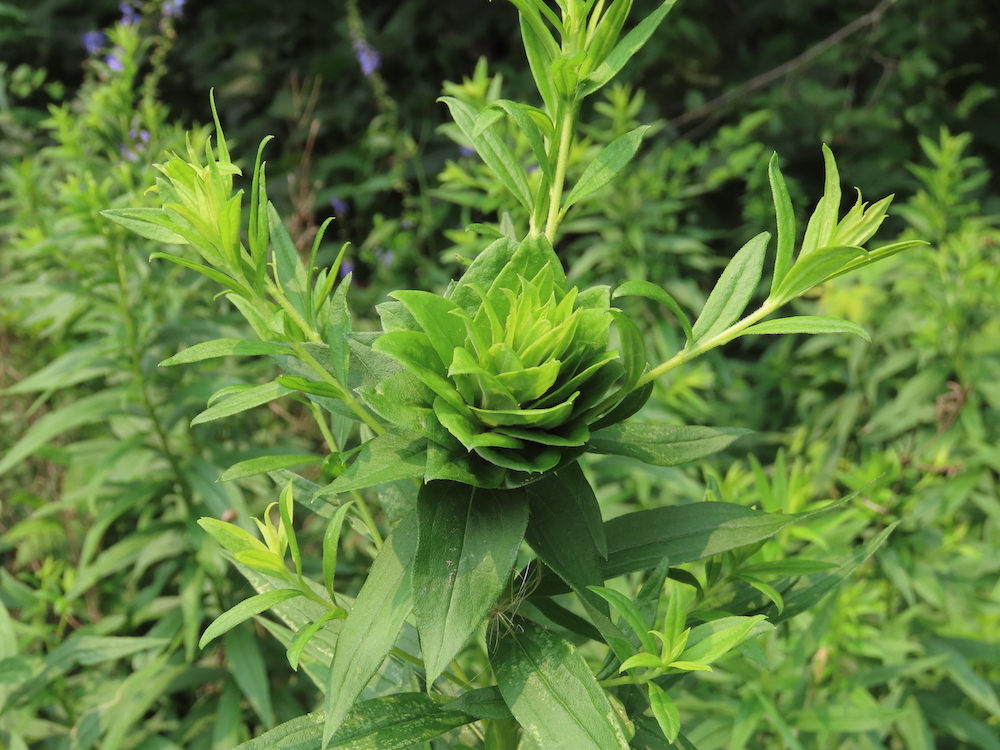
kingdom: Animalia
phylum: Arthropoda
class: Insecta
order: Diptera
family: Cecidomyiidae
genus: Rhopalomyia
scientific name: Rhopalomyia solidaginis
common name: Goldenrod bunch gall midge
